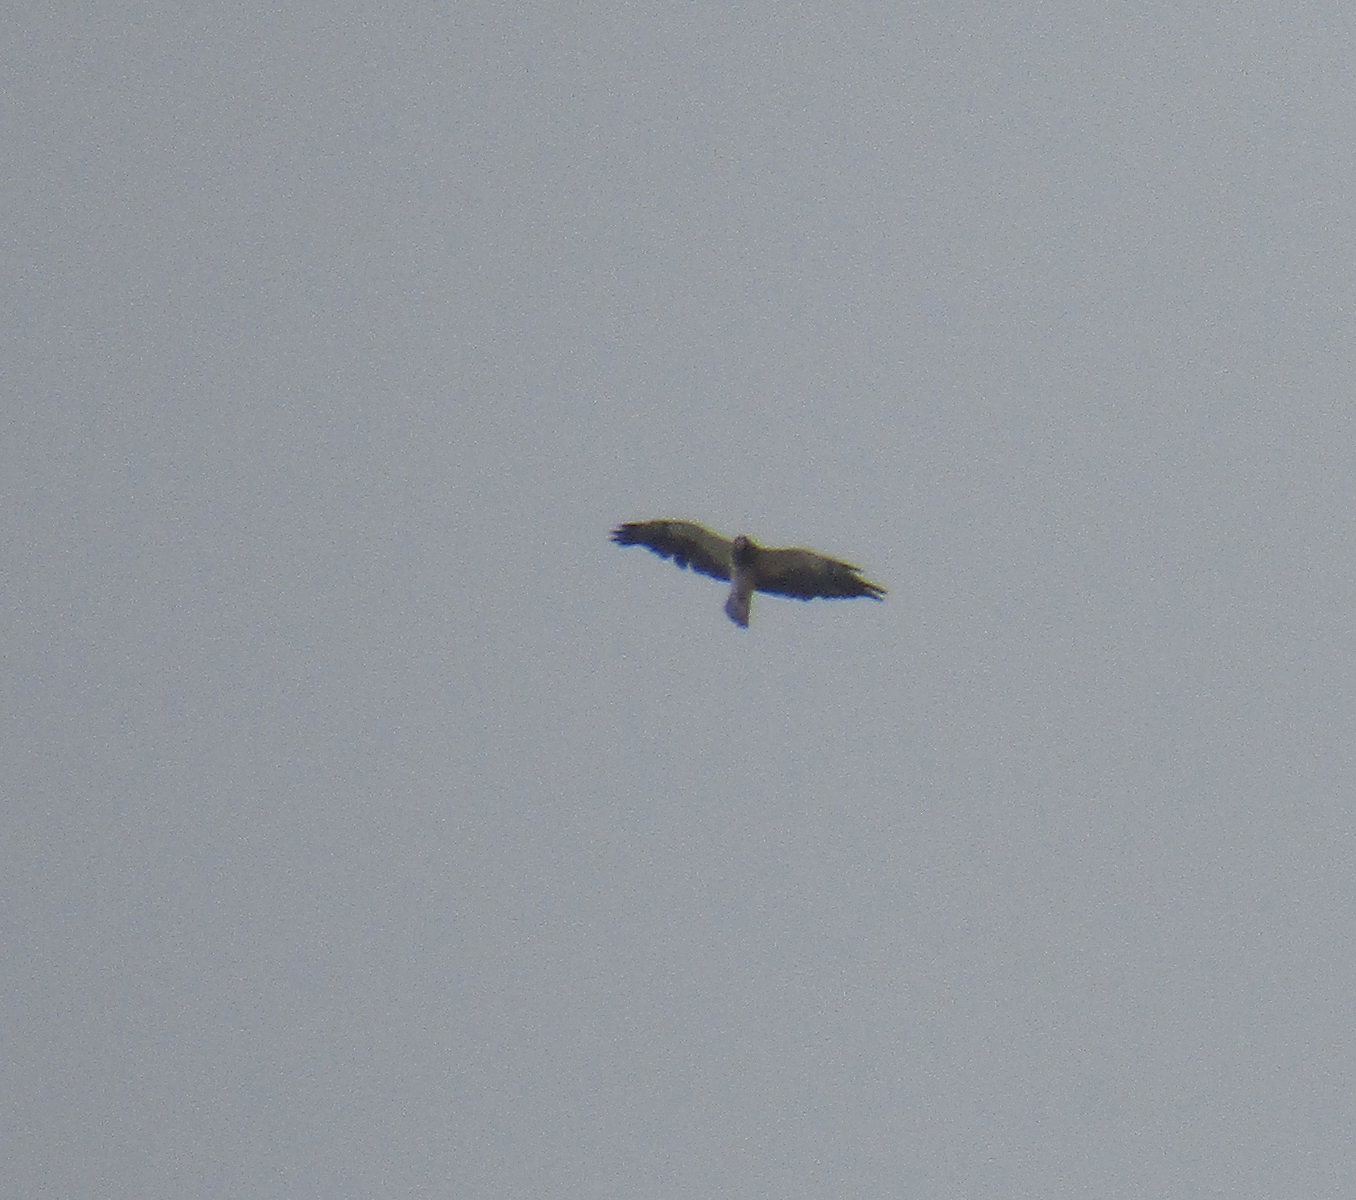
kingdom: Animalia
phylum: Chordata
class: Aves
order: Accipitriformes
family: Accipitridae
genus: Buteo
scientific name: Buteo swainsoni
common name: Swainson's hawk
